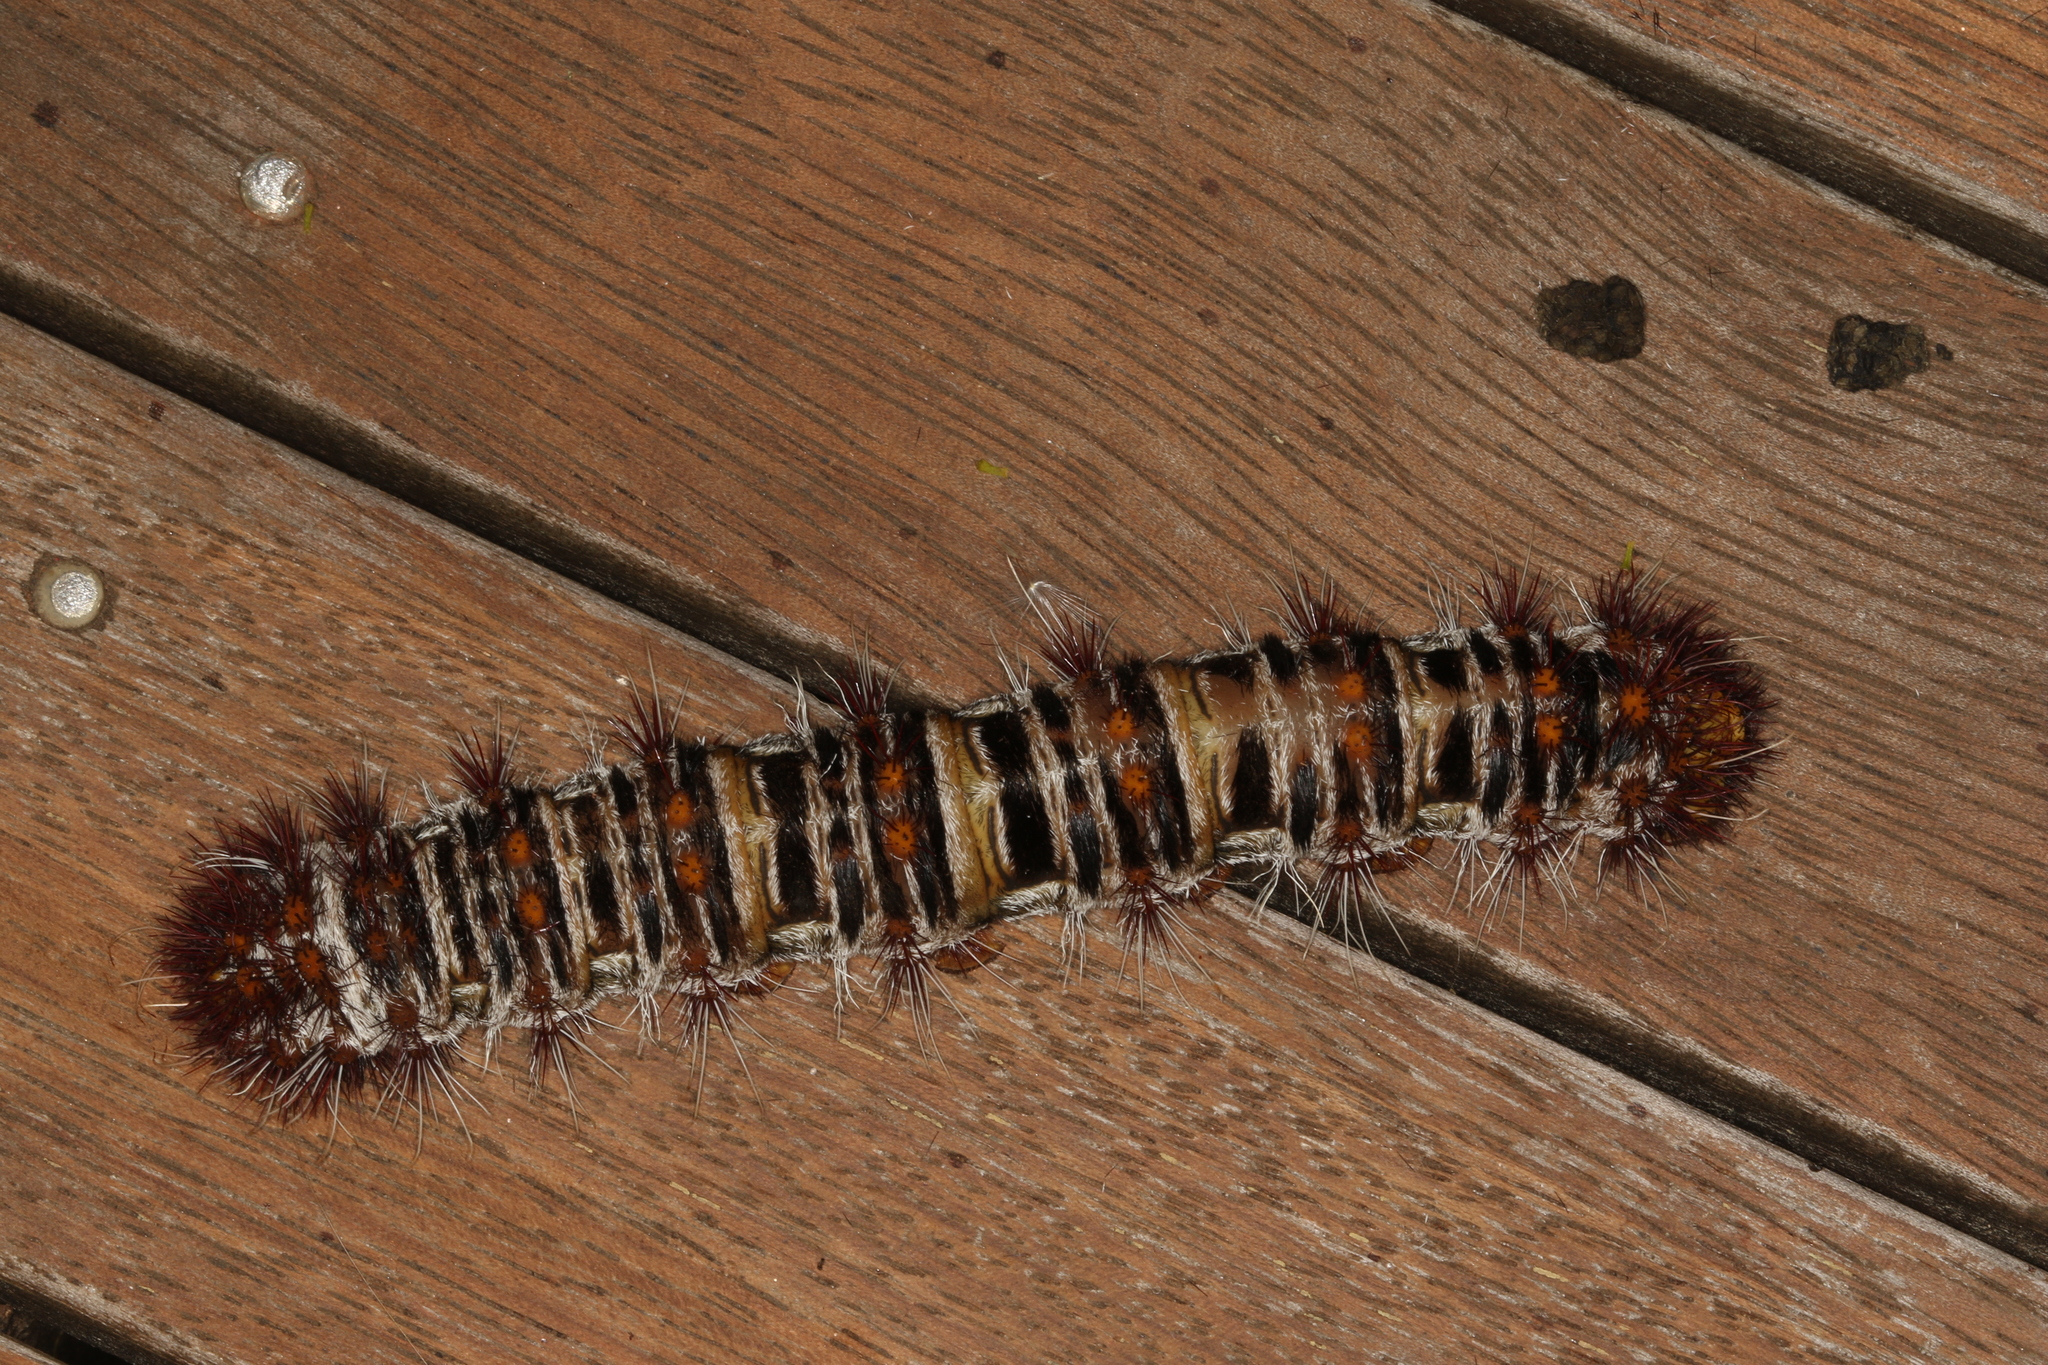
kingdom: Animalia
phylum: Arthropoda
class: Insecta
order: Lepidoptera
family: Anthelidae
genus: Chelepteryx
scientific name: Chelepteryx collesi
